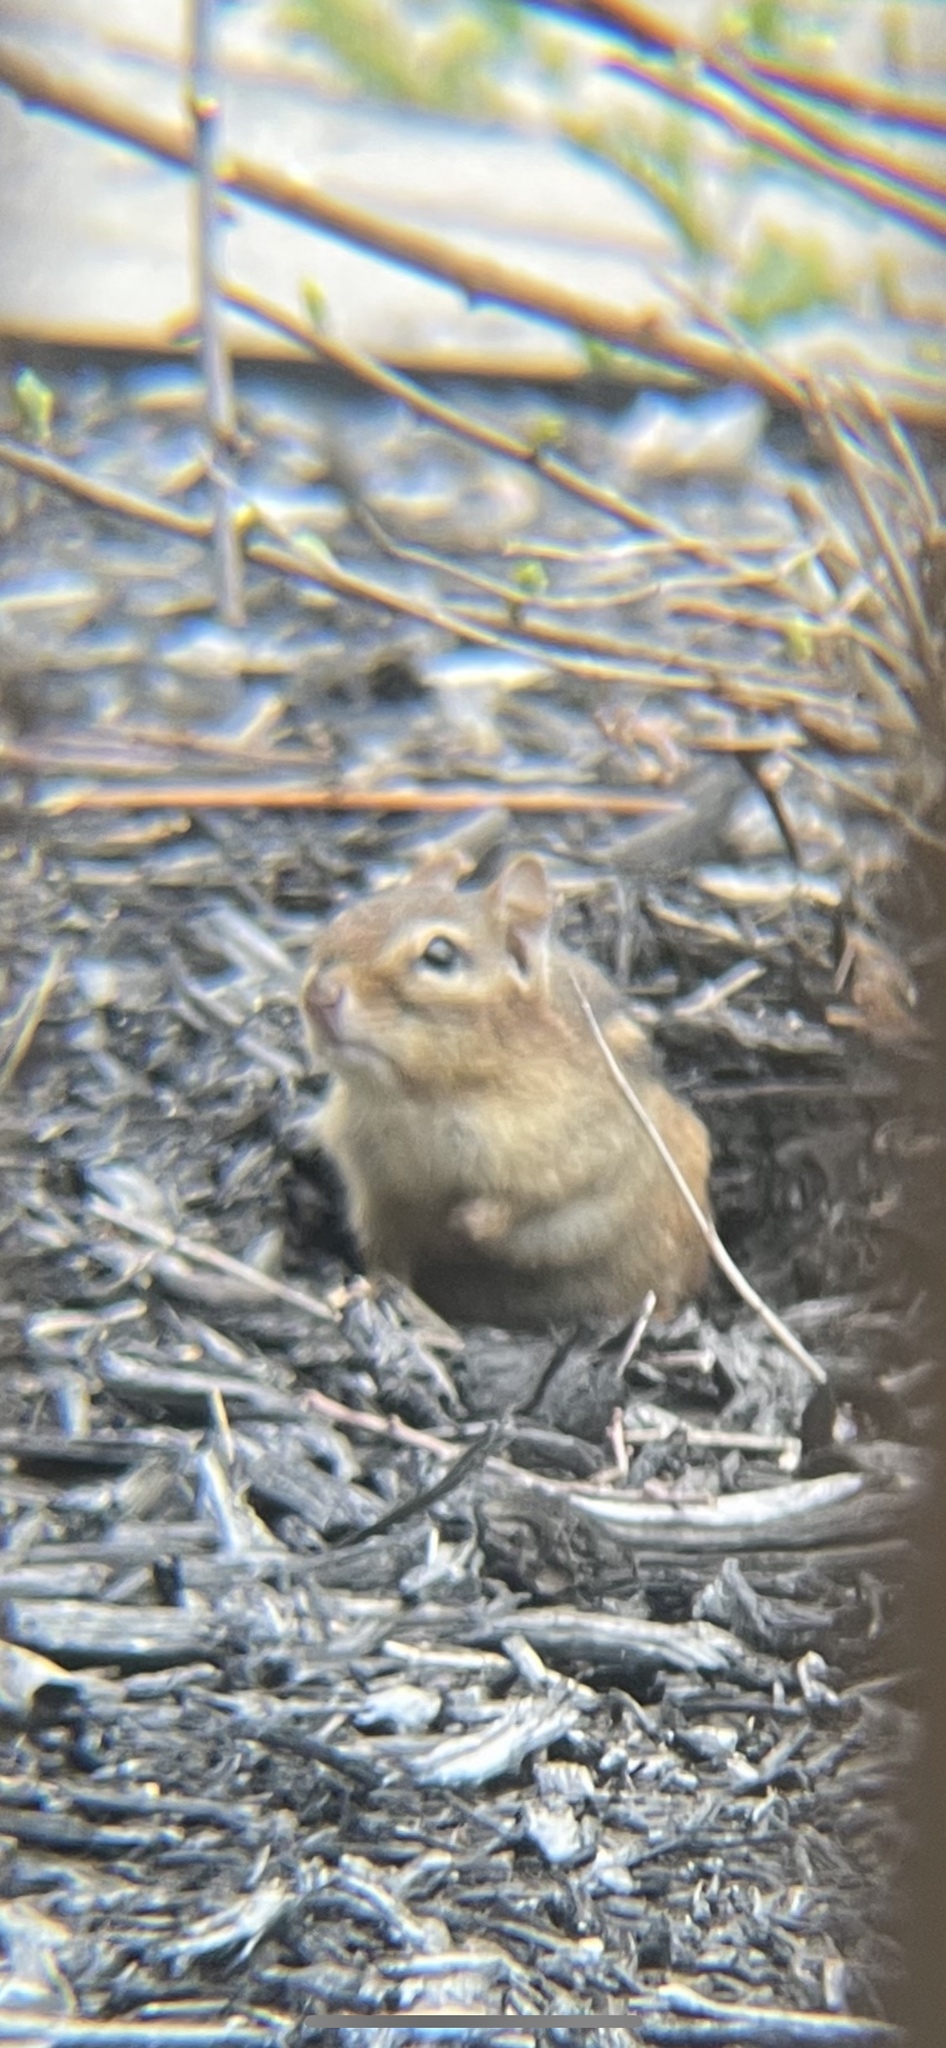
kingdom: Animalia
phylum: Chordata
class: Mammalia
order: Rodentia
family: Sciuridae
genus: Tamias
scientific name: Tamias striatus
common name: Eastern chipmunk
